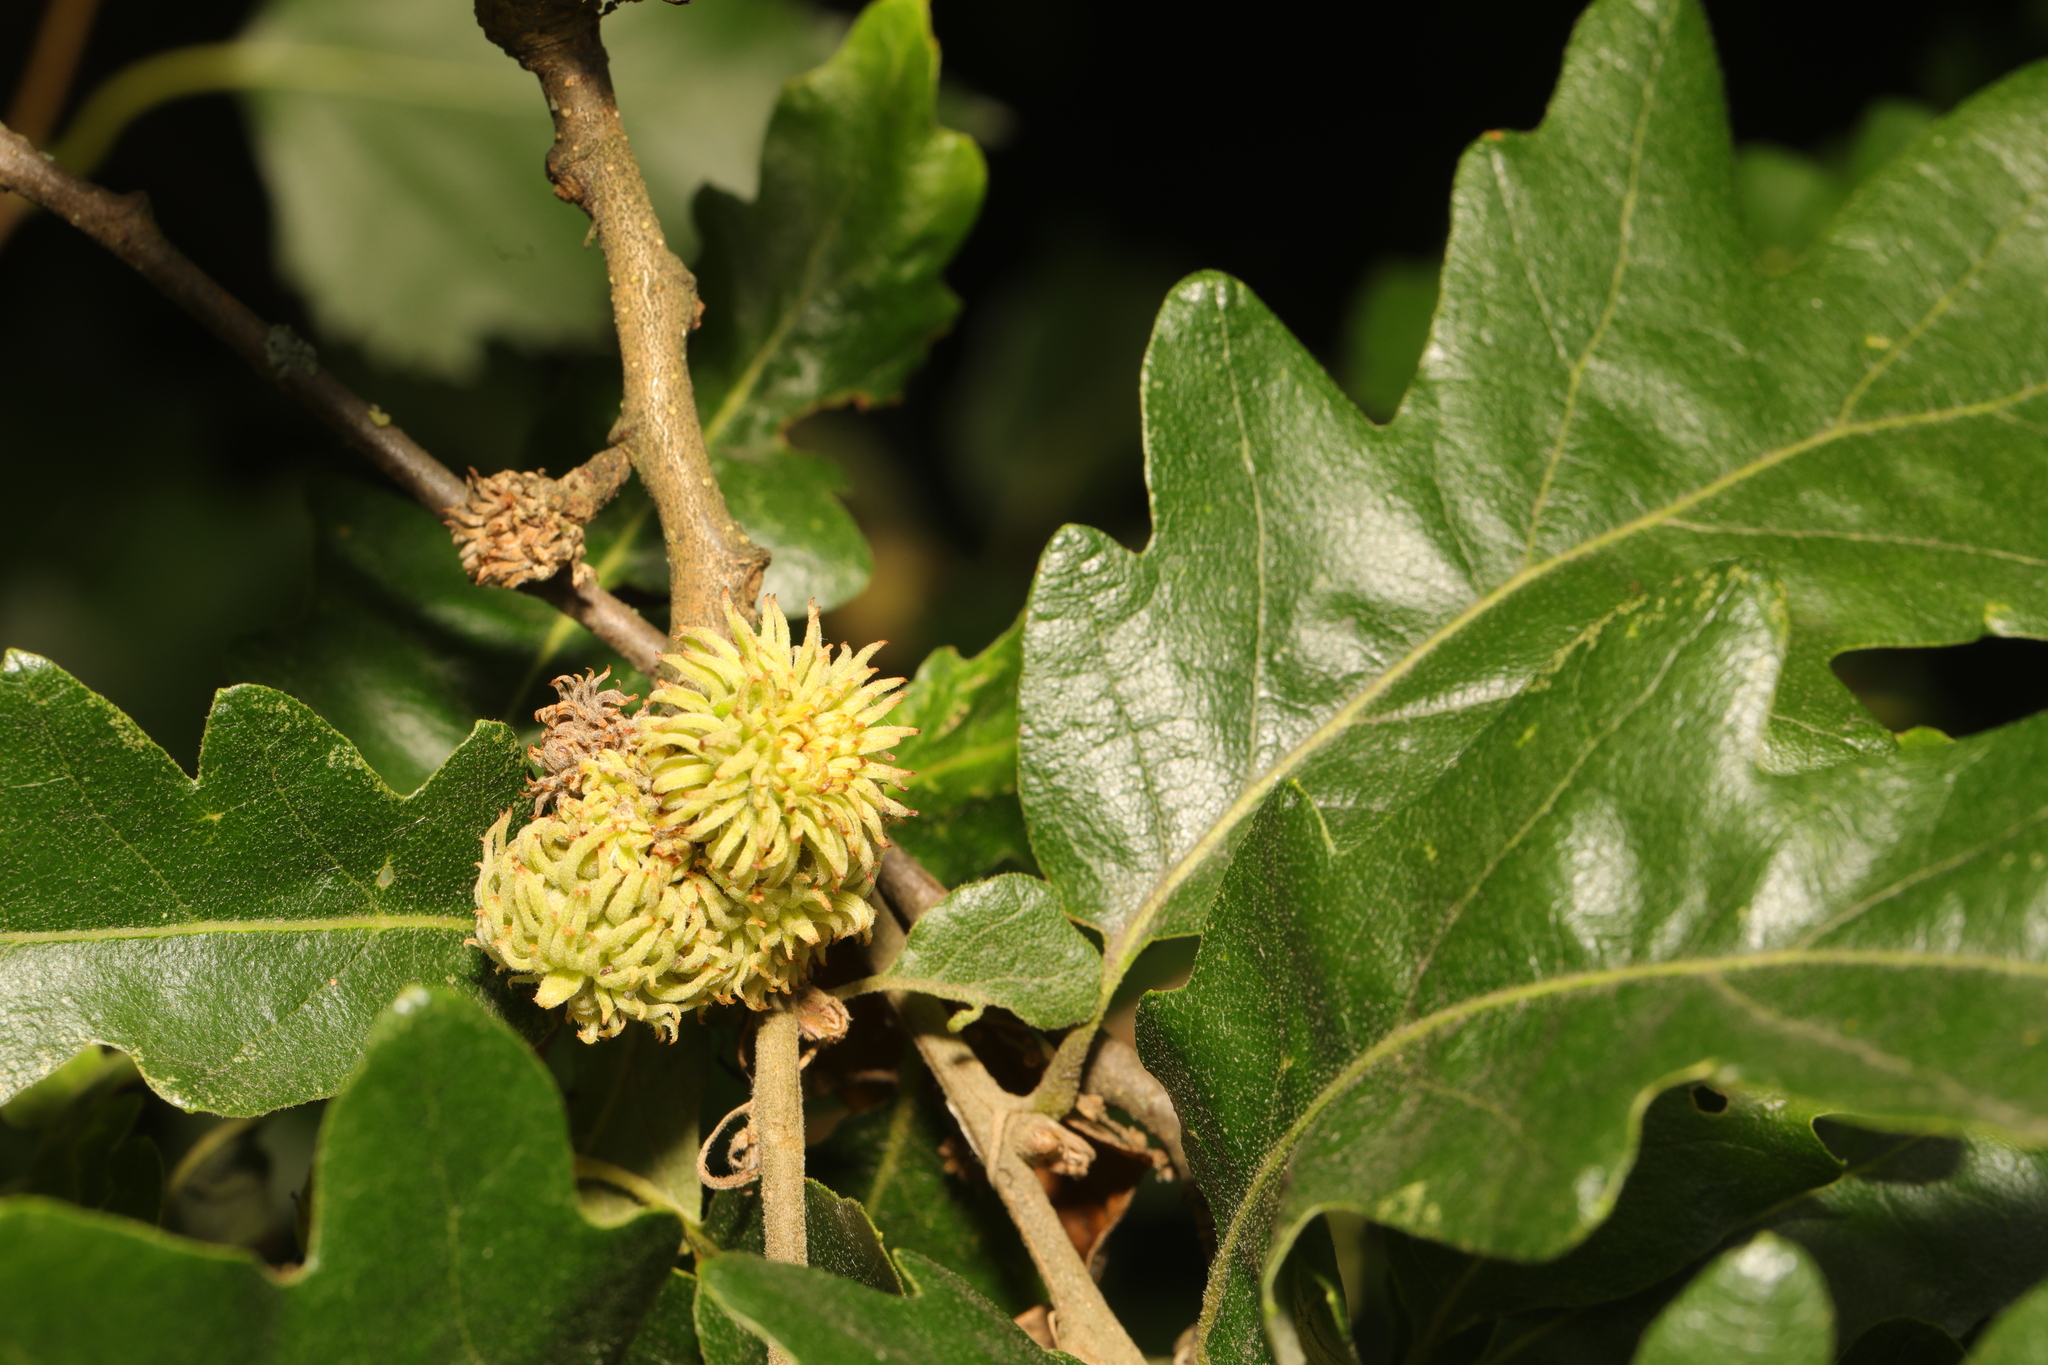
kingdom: Plantae
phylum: Tracheophyta
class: Magnoliopsida
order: Fagales
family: Fagaceae
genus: Quercus
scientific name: Quercus cerris
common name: Turkey oak
